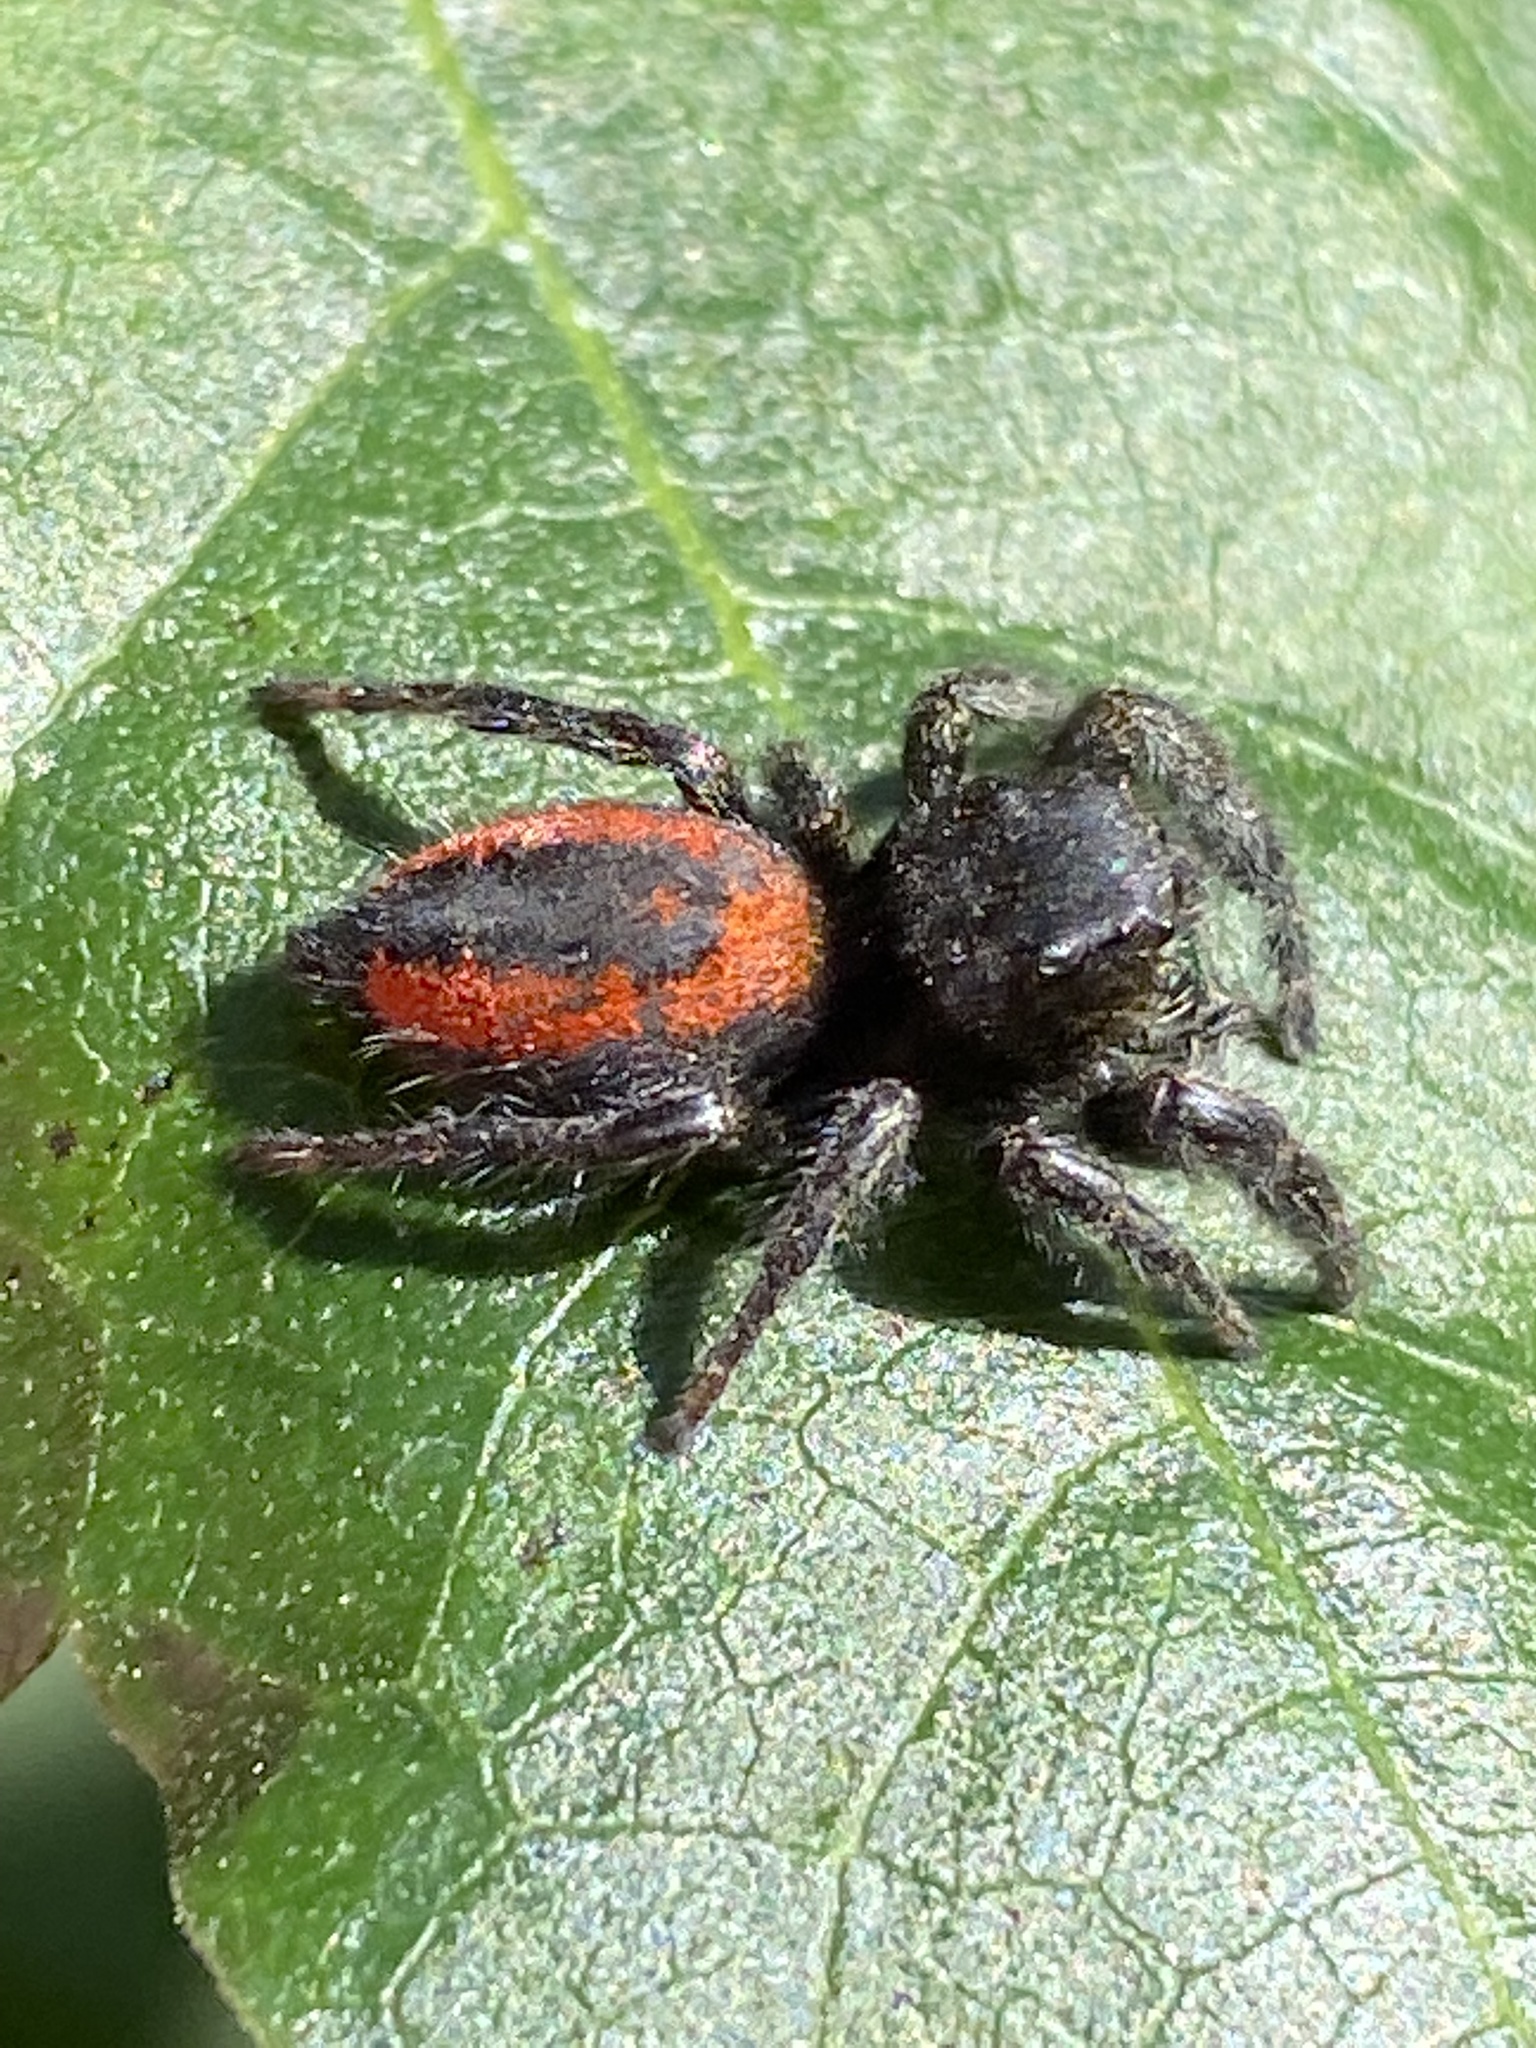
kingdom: Animalia
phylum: Arthropoda
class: Arachnida
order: Araneae
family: Salticidae
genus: Phidippus
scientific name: Phidippus johnsoni
